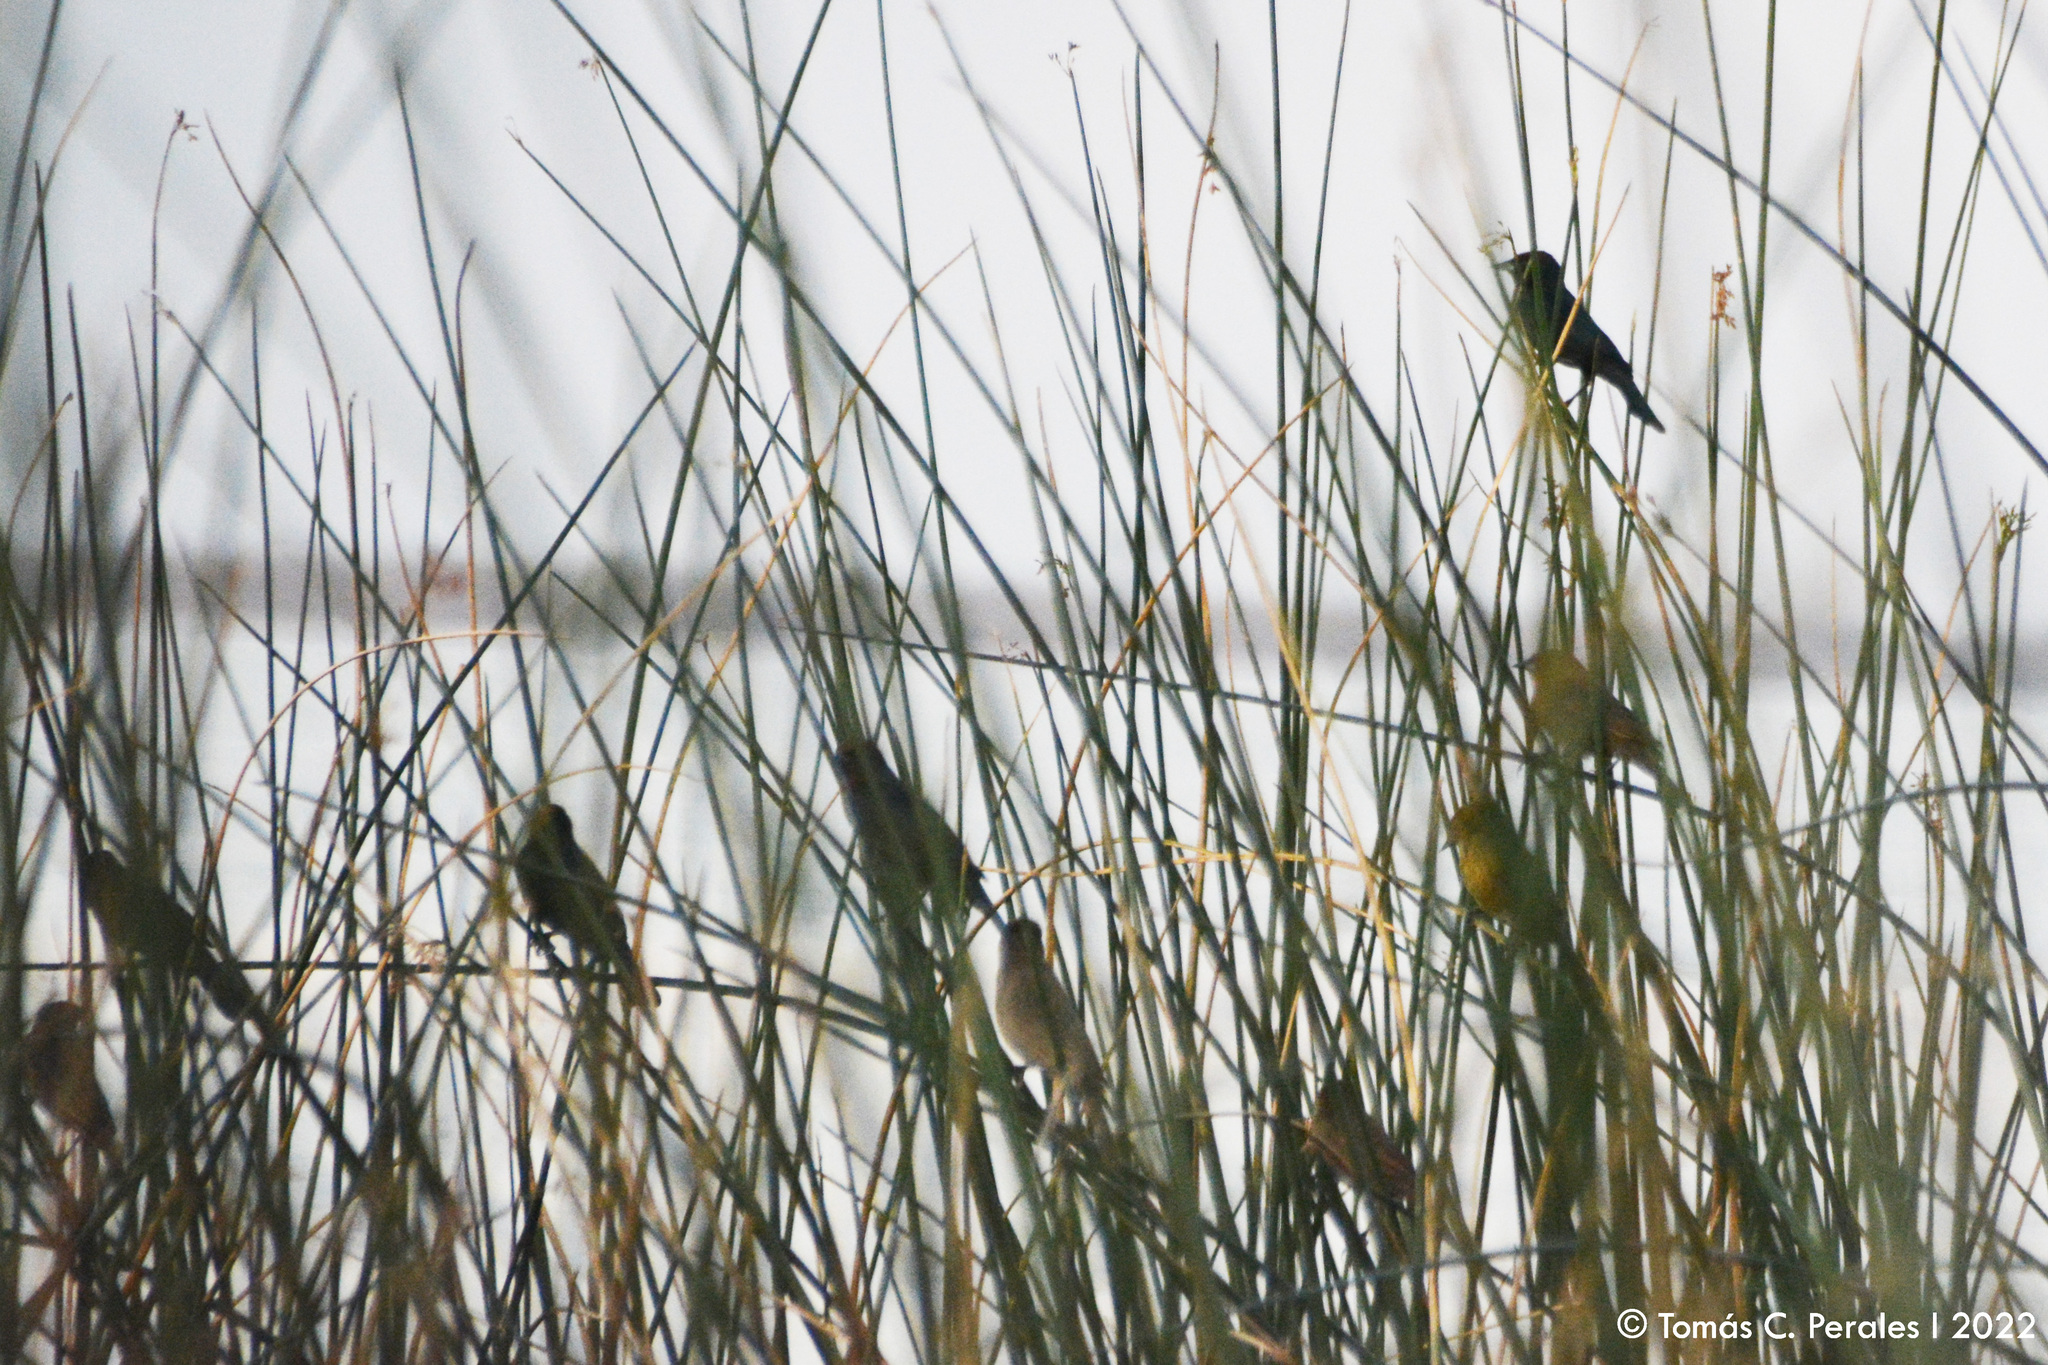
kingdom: Animalia
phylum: Chordata
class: Aves
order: Passeriformes
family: Icteridae
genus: Chrysomus
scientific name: Chrysomus ruficapillus
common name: Chestnut-capped blackbird
